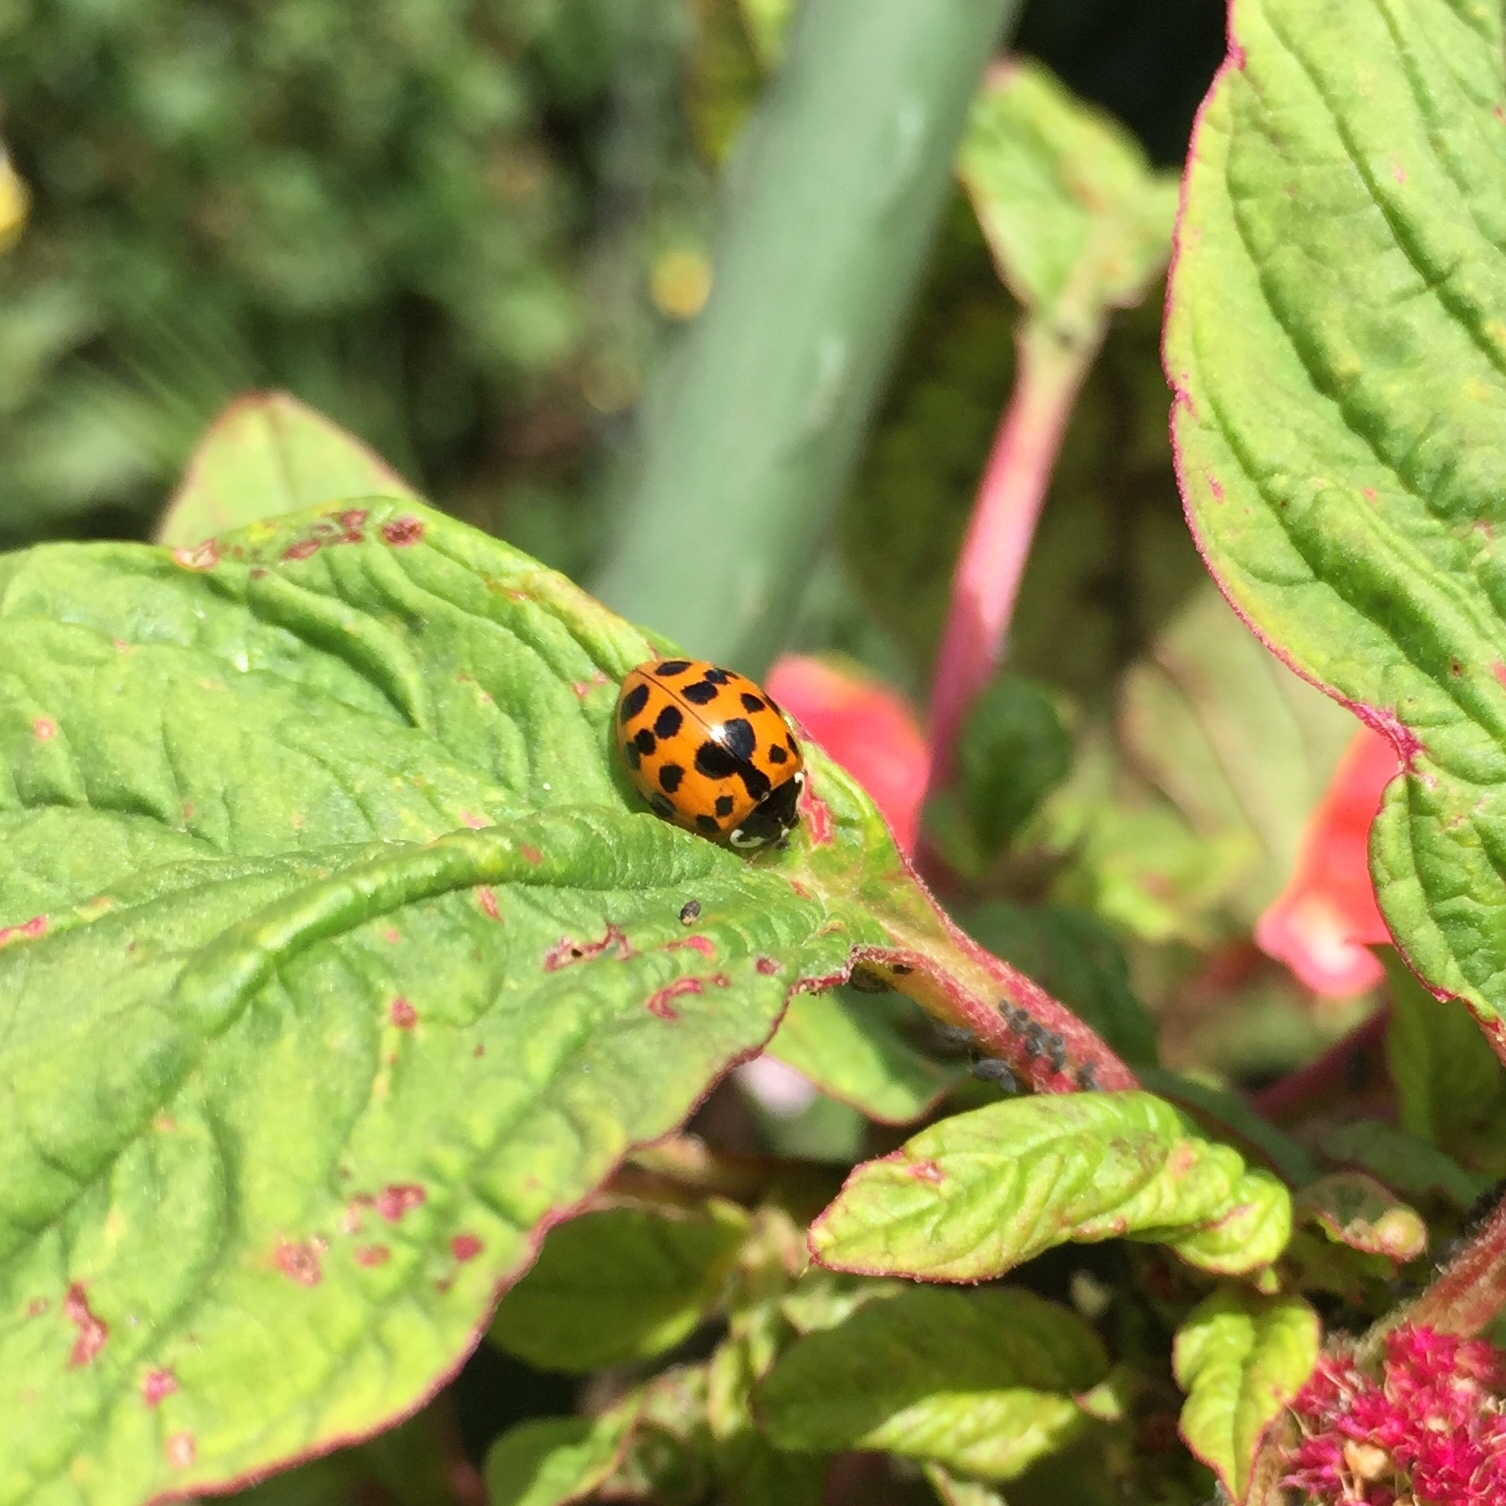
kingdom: Animalia
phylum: Arthropoda
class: Insecta
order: Coleoptera
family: Coccinellidae
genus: Harmonia
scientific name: Harmonia axyridis
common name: Harlequin ladybird
